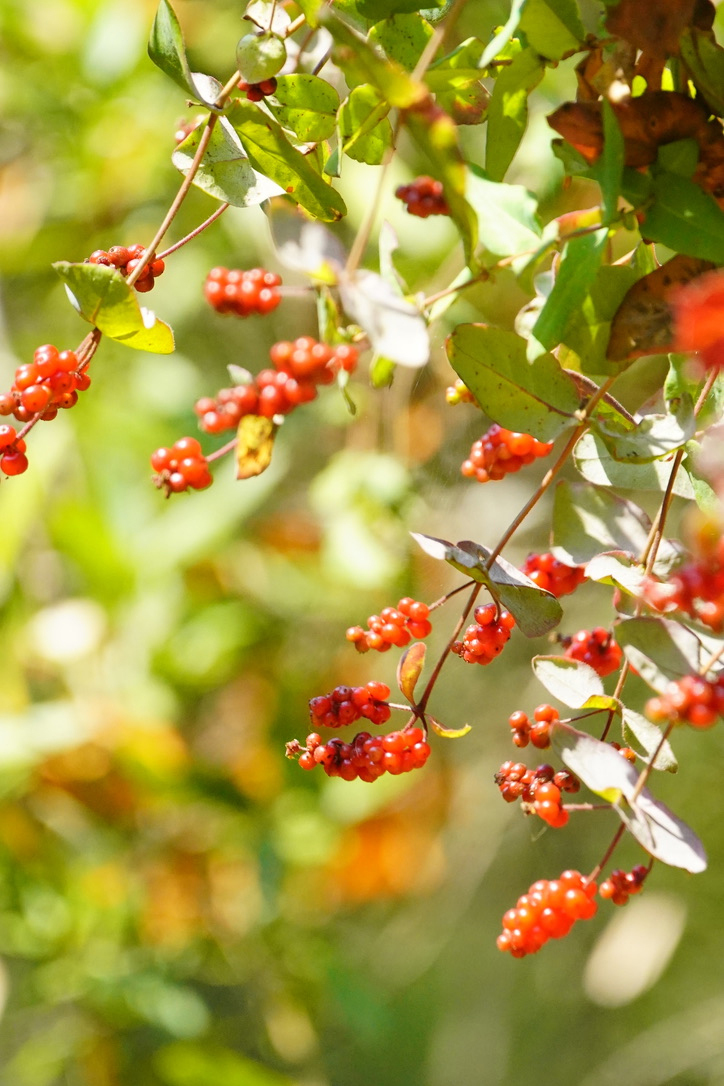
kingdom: Plantae
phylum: Tracheophyta
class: Magnoliopsida
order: Dipsacales
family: Caprifoliaceae
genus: Lonicera
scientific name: Lonicera hispidula
